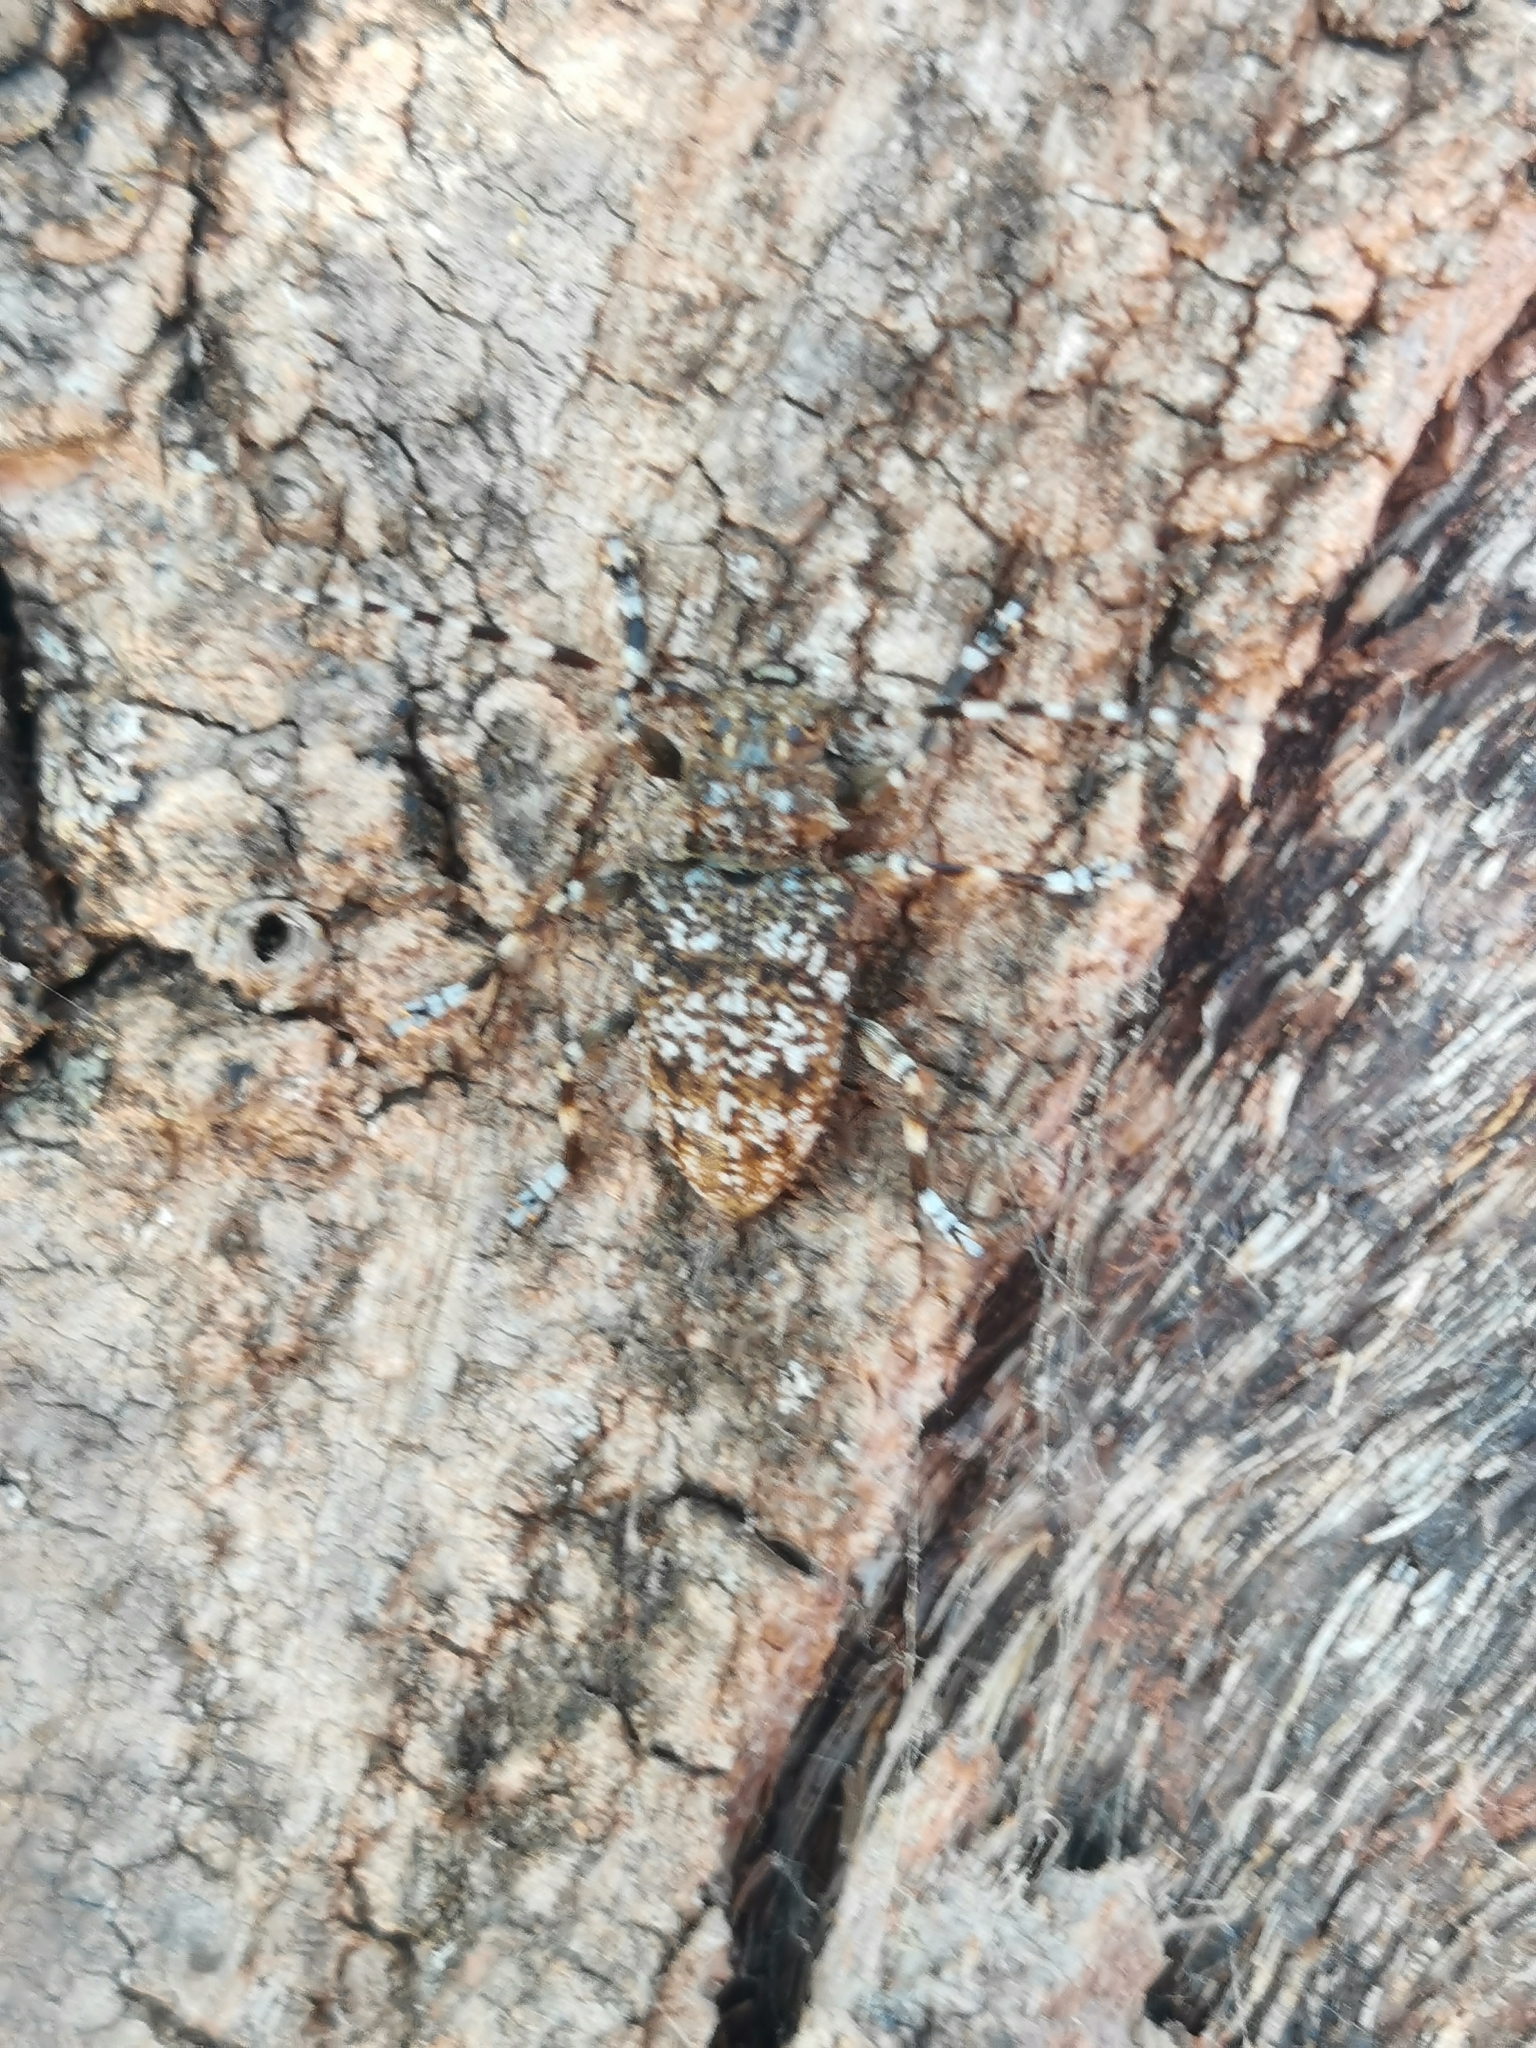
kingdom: Animalia
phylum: Arthropoda
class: Insecta
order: Coleoptera
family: Cerambycidae
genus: Aegomorphus
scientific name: Aegomorphus clavipes
